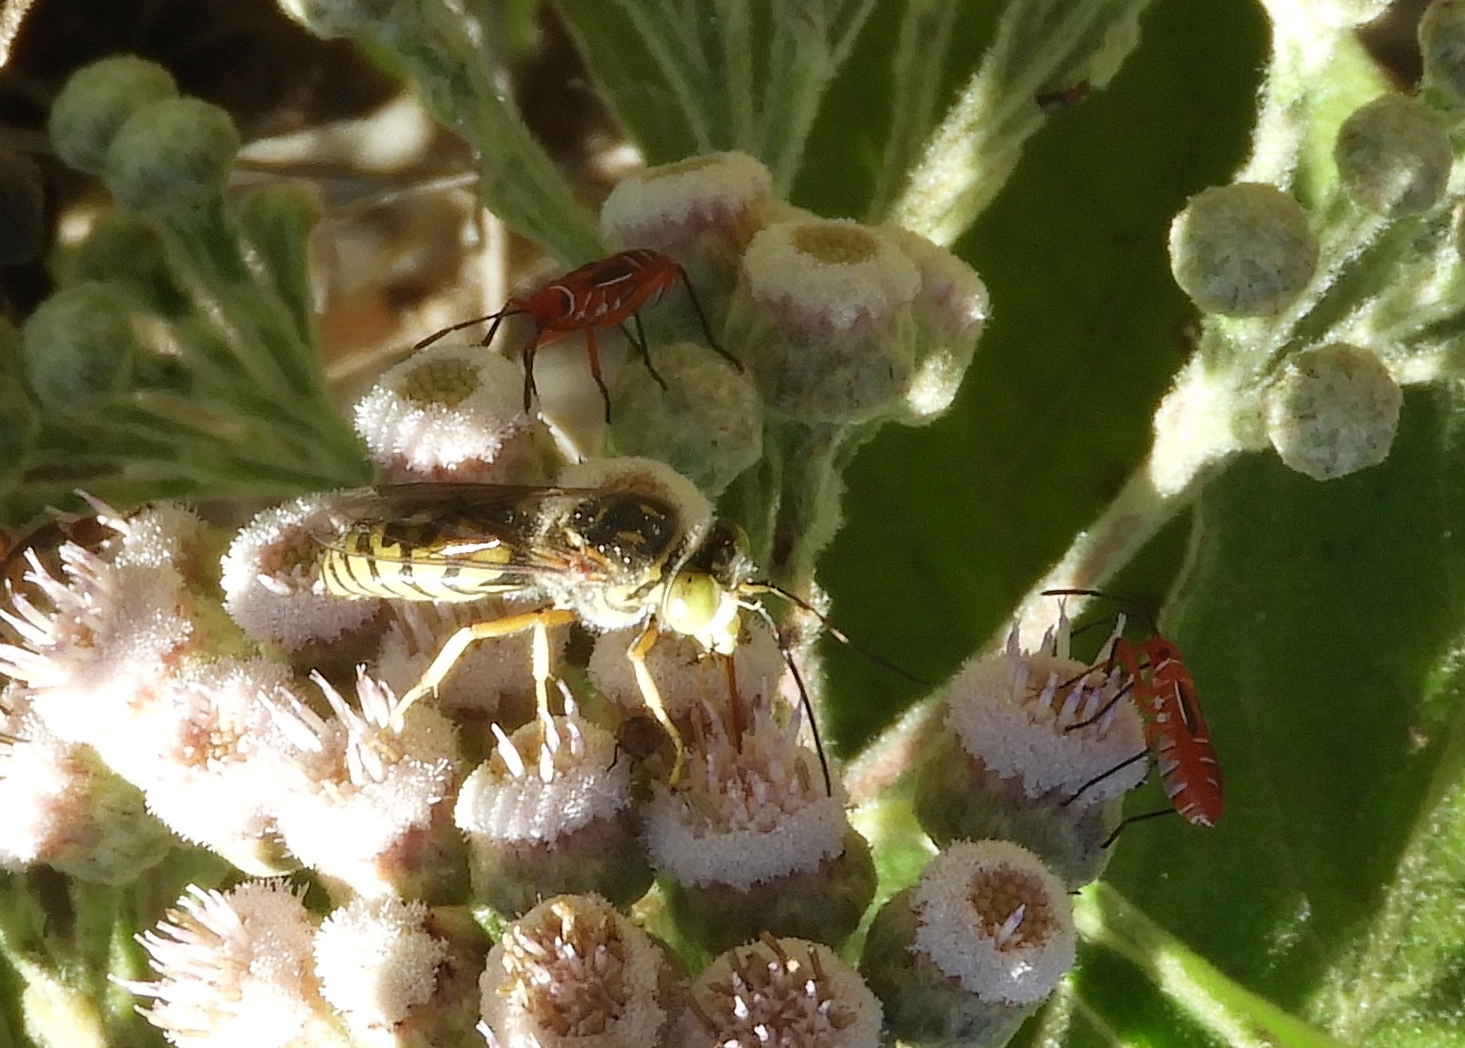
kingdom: Animalia
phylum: Arthropoda
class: Insecta
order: Hymenoptera
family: Crabronidae
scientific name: Crabronidae
